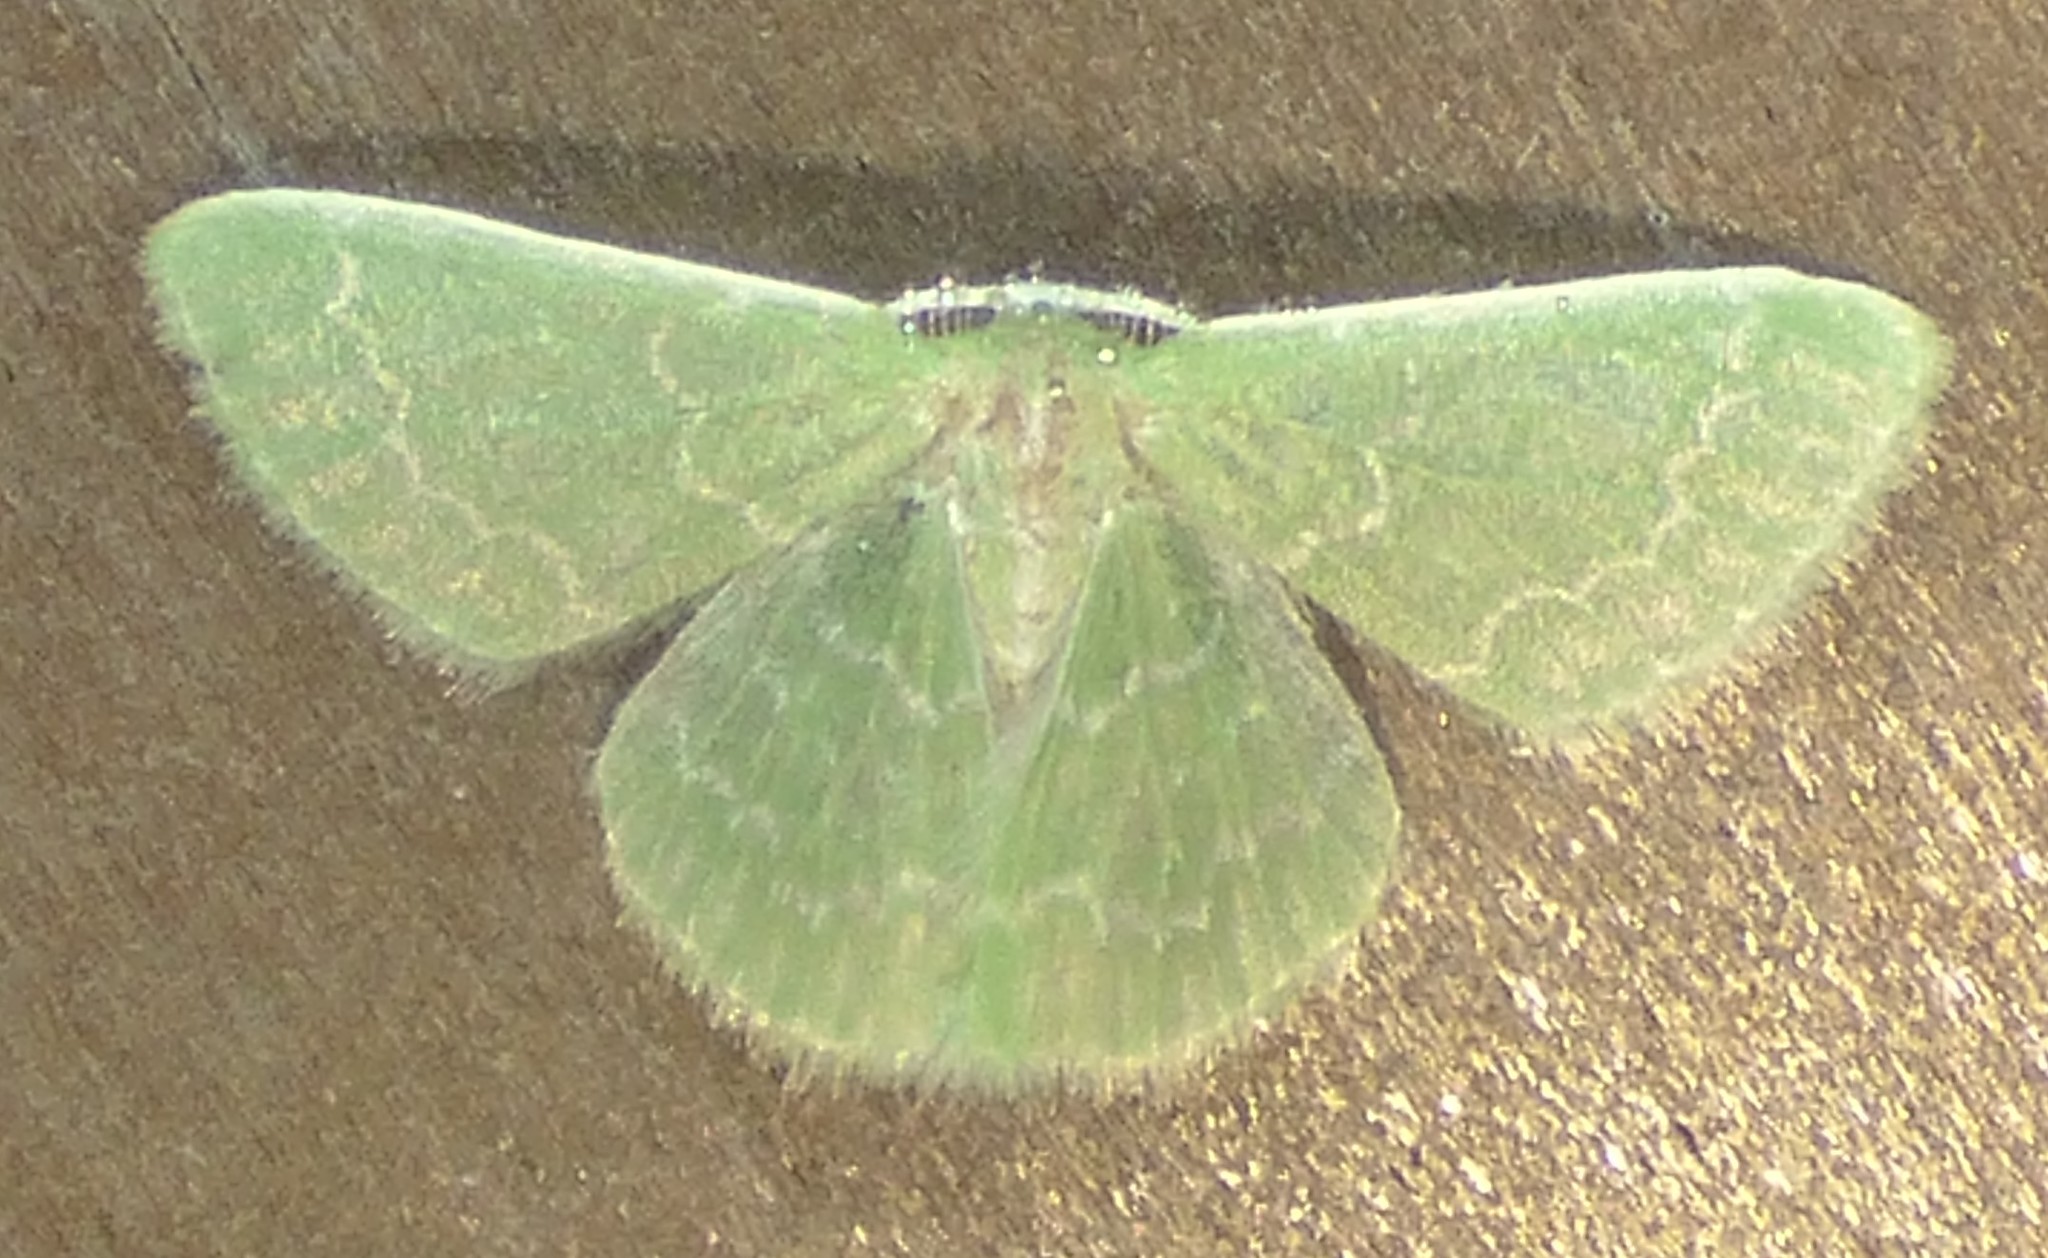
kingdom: Animalia
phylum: Arthropoda
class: Insecta
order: Lepidoptera
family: Geometridae
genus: Synchlora
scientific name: Synchlora frondaria
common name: Southern emerald
